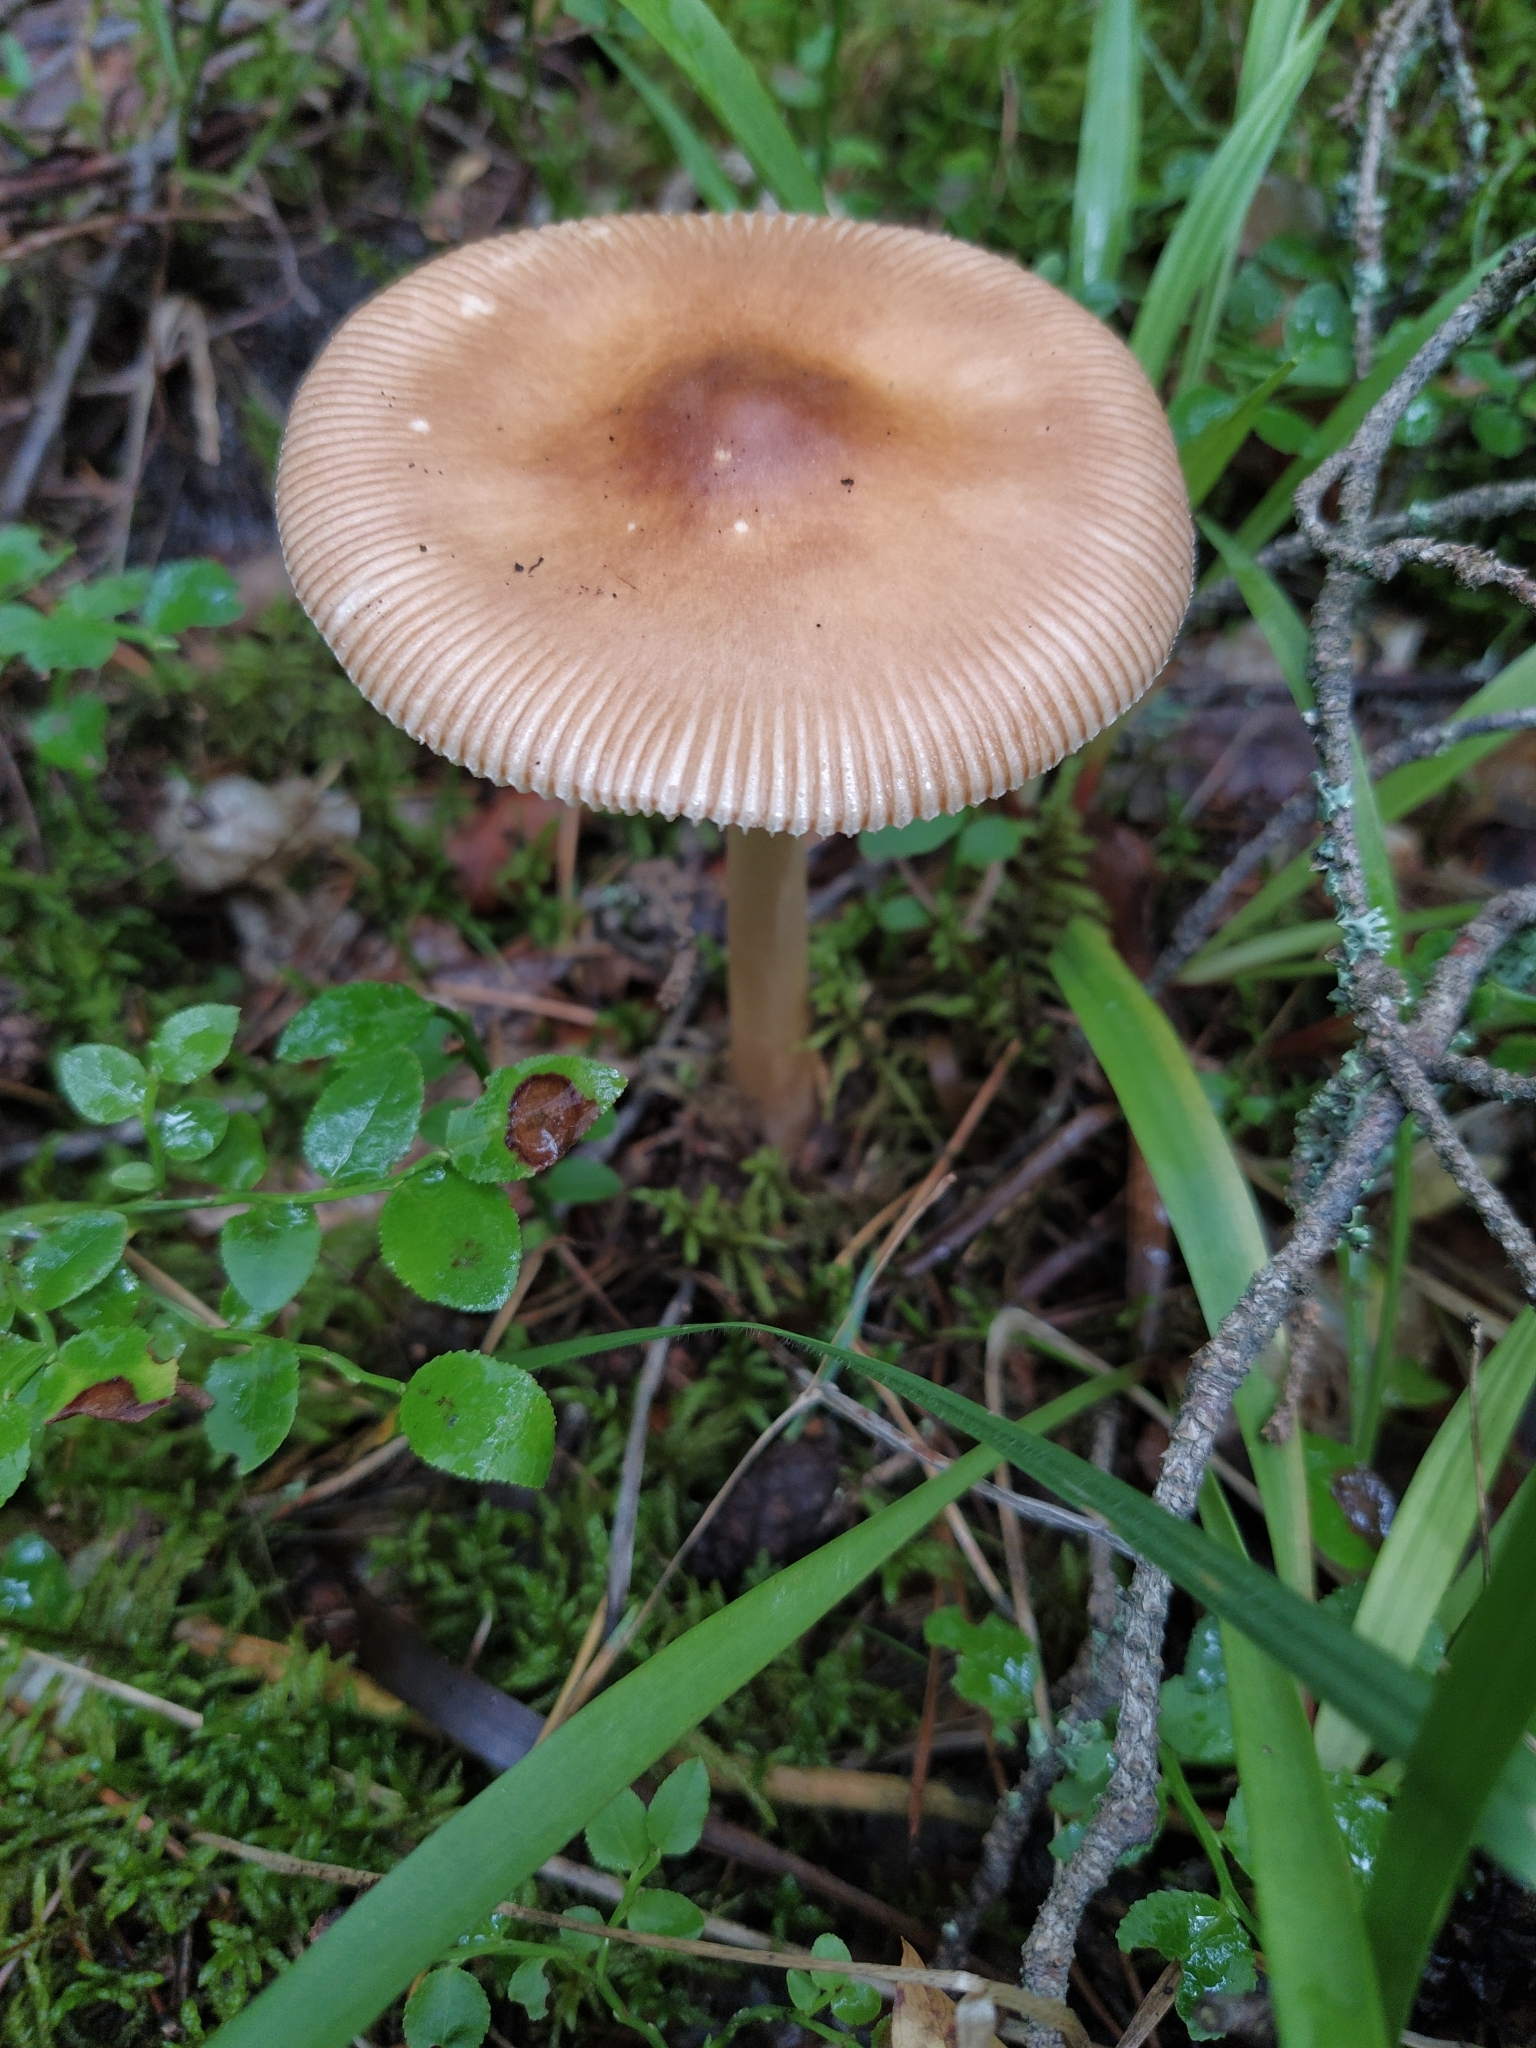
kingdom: Fungi
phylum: Basidiomycota
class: Agaricomycetes
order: Agaricales
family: Amanitaceae
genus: Amanita
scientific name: Amanita fulva
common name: Tawny grisette
